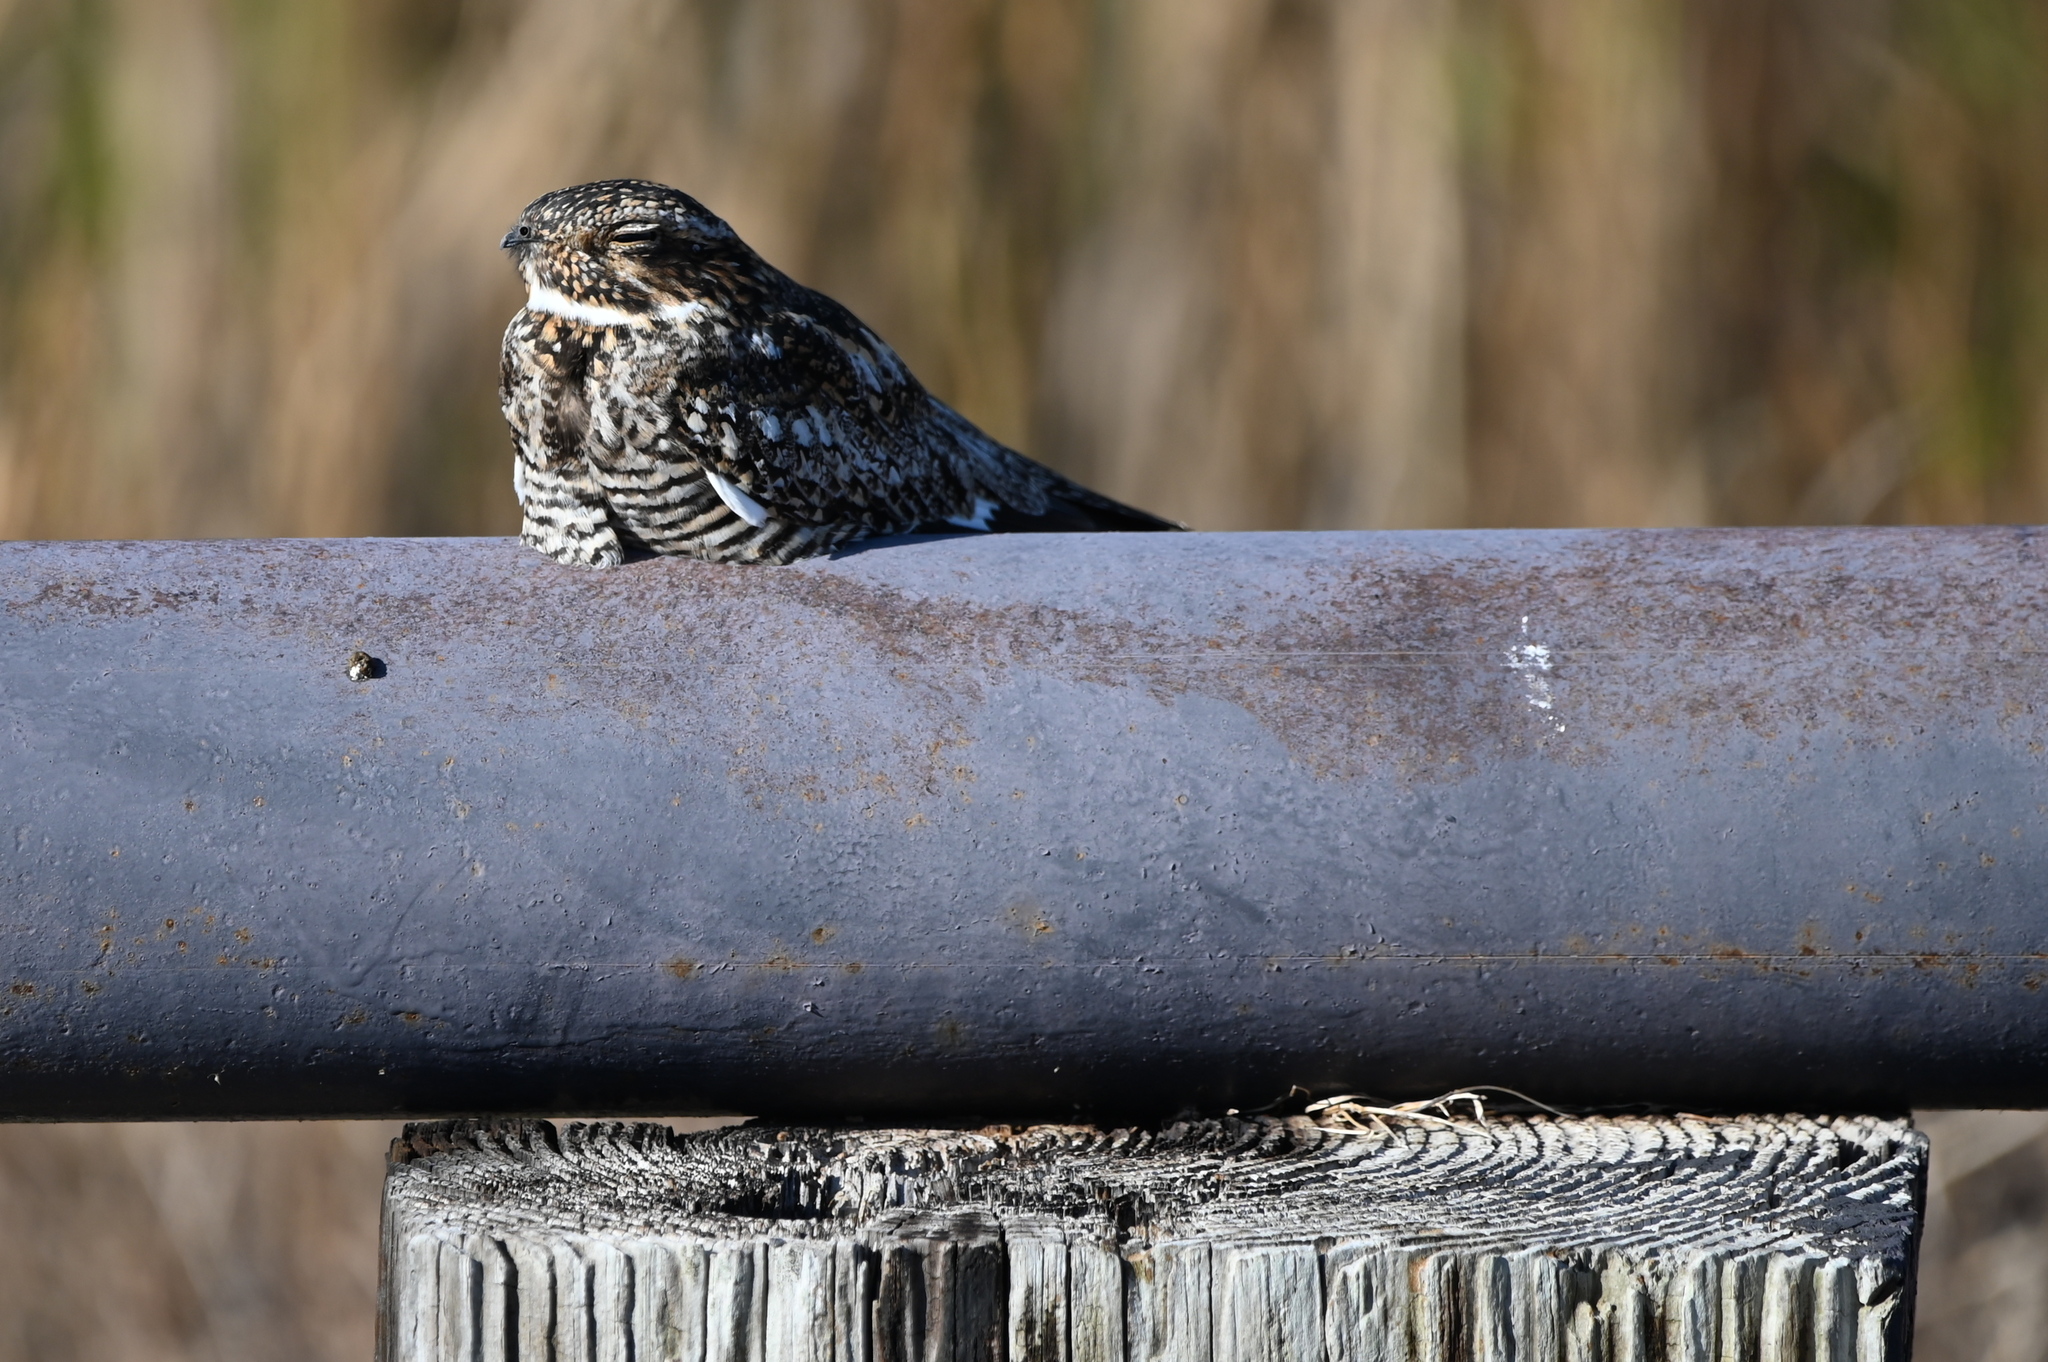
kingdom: Animalia
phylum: Chordata
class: Aves
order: Caprimulgiformes
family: Caprimulgidae
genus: Chordeiles
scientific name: Chordeiles minor
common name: Common nighthawk
